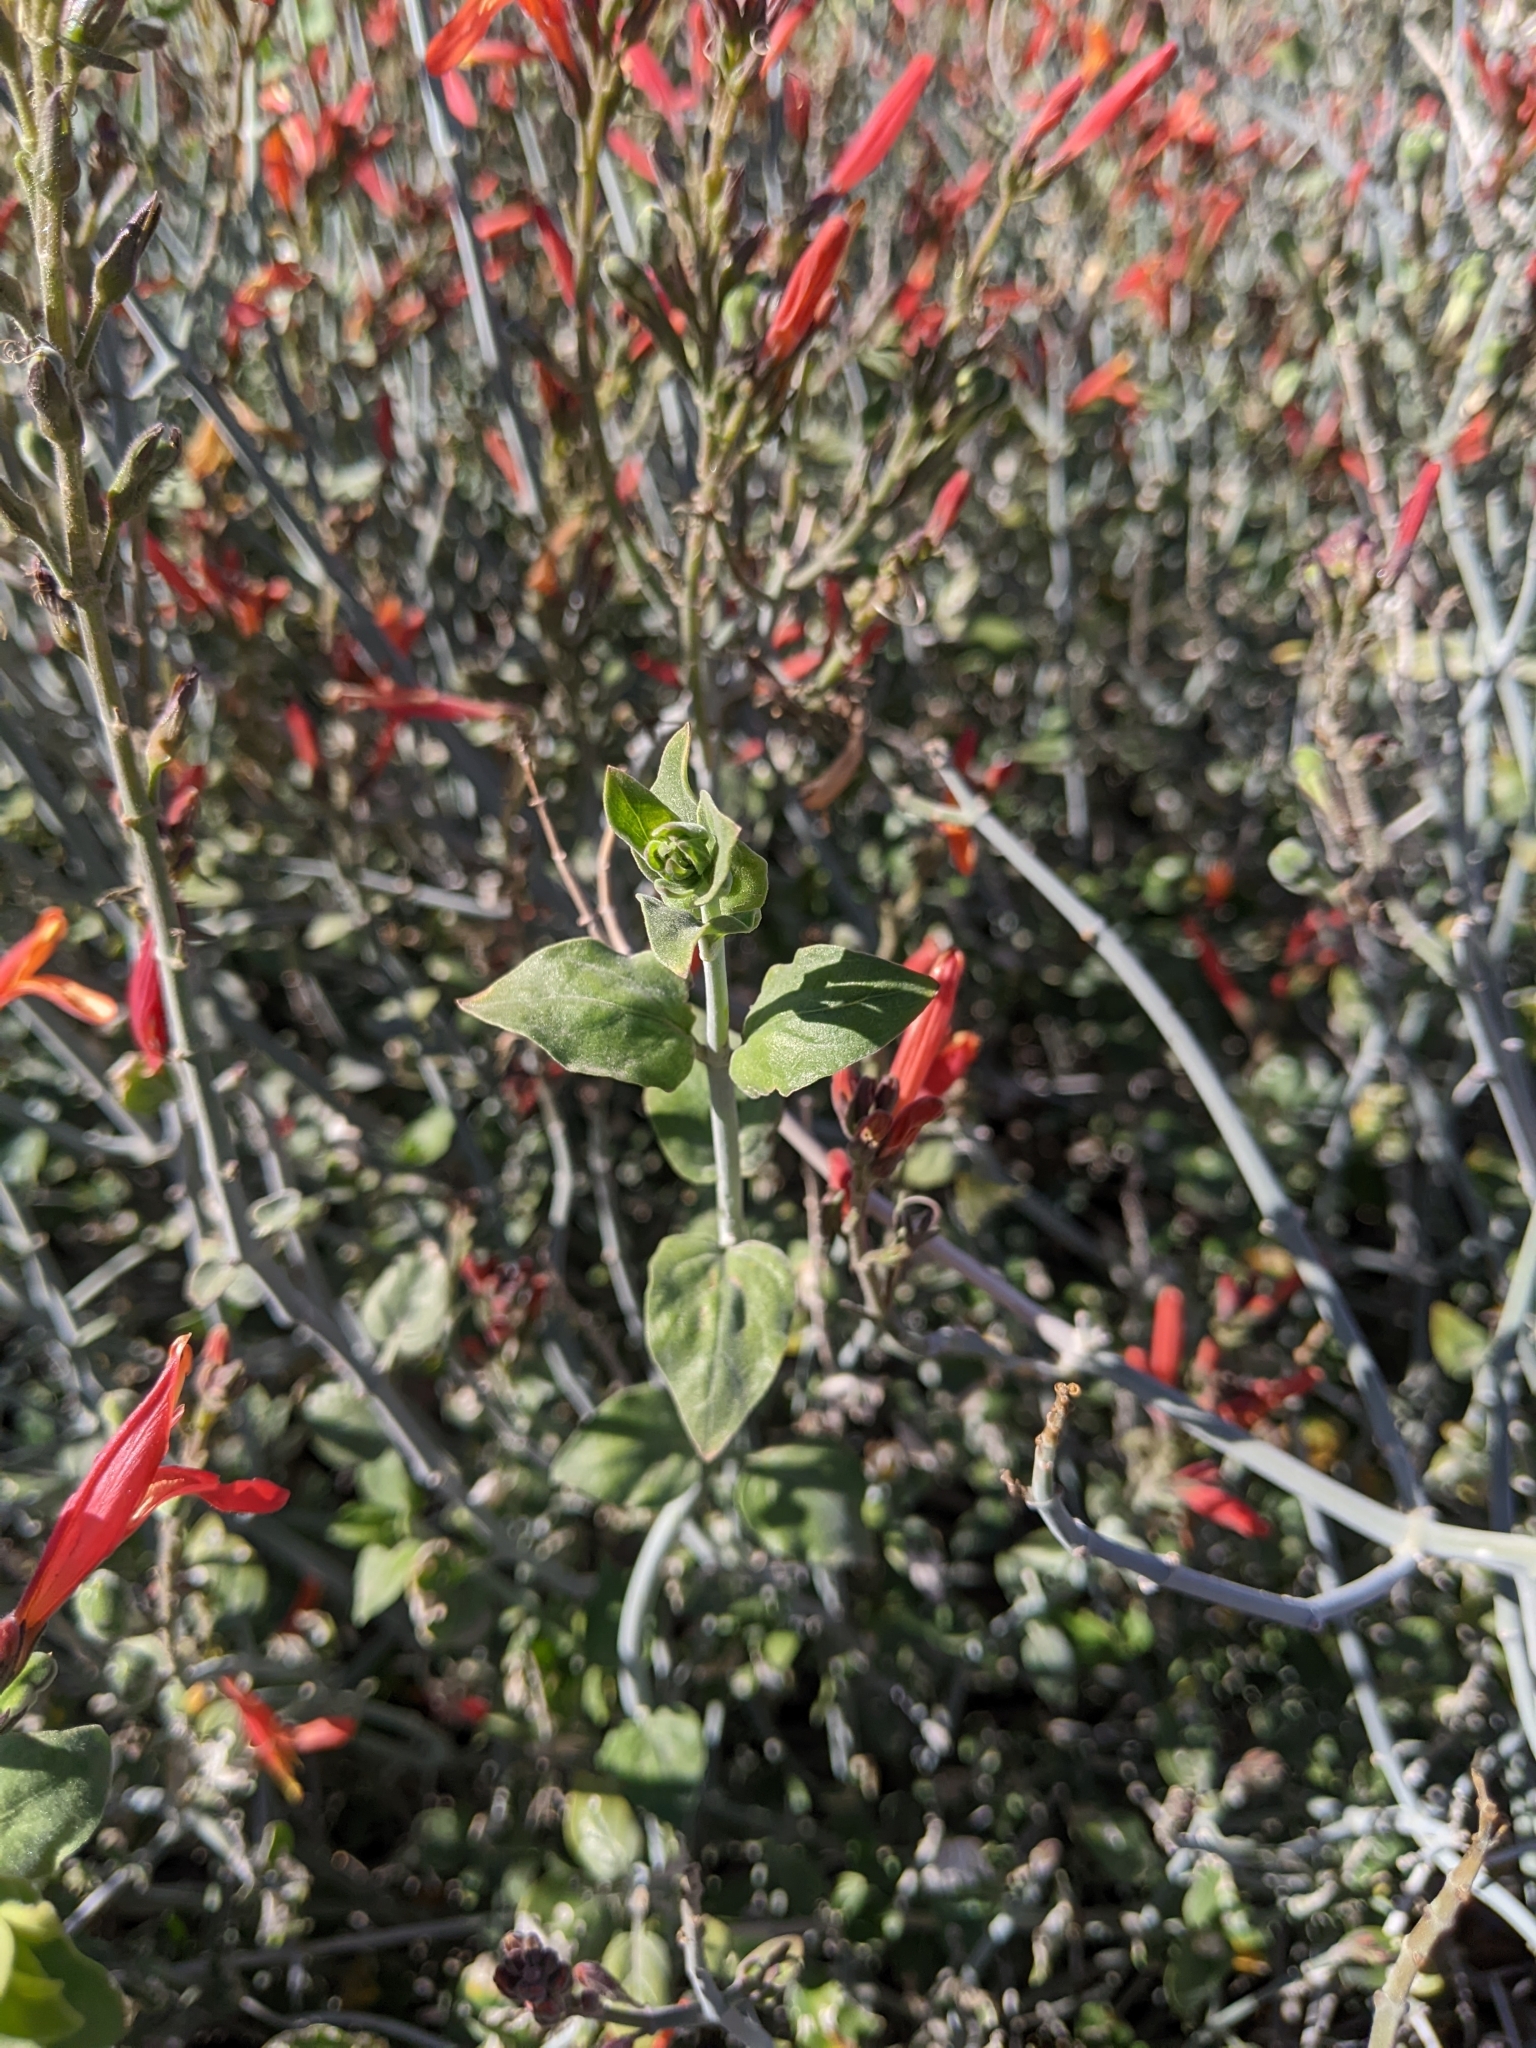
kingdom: Plantae
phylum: Tracheophyta
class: Magnoliopsida
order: Lamiales
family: Acanthaceae
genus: Justicia
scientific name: Justicia californica
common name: Chuparosa-honeysuckle
